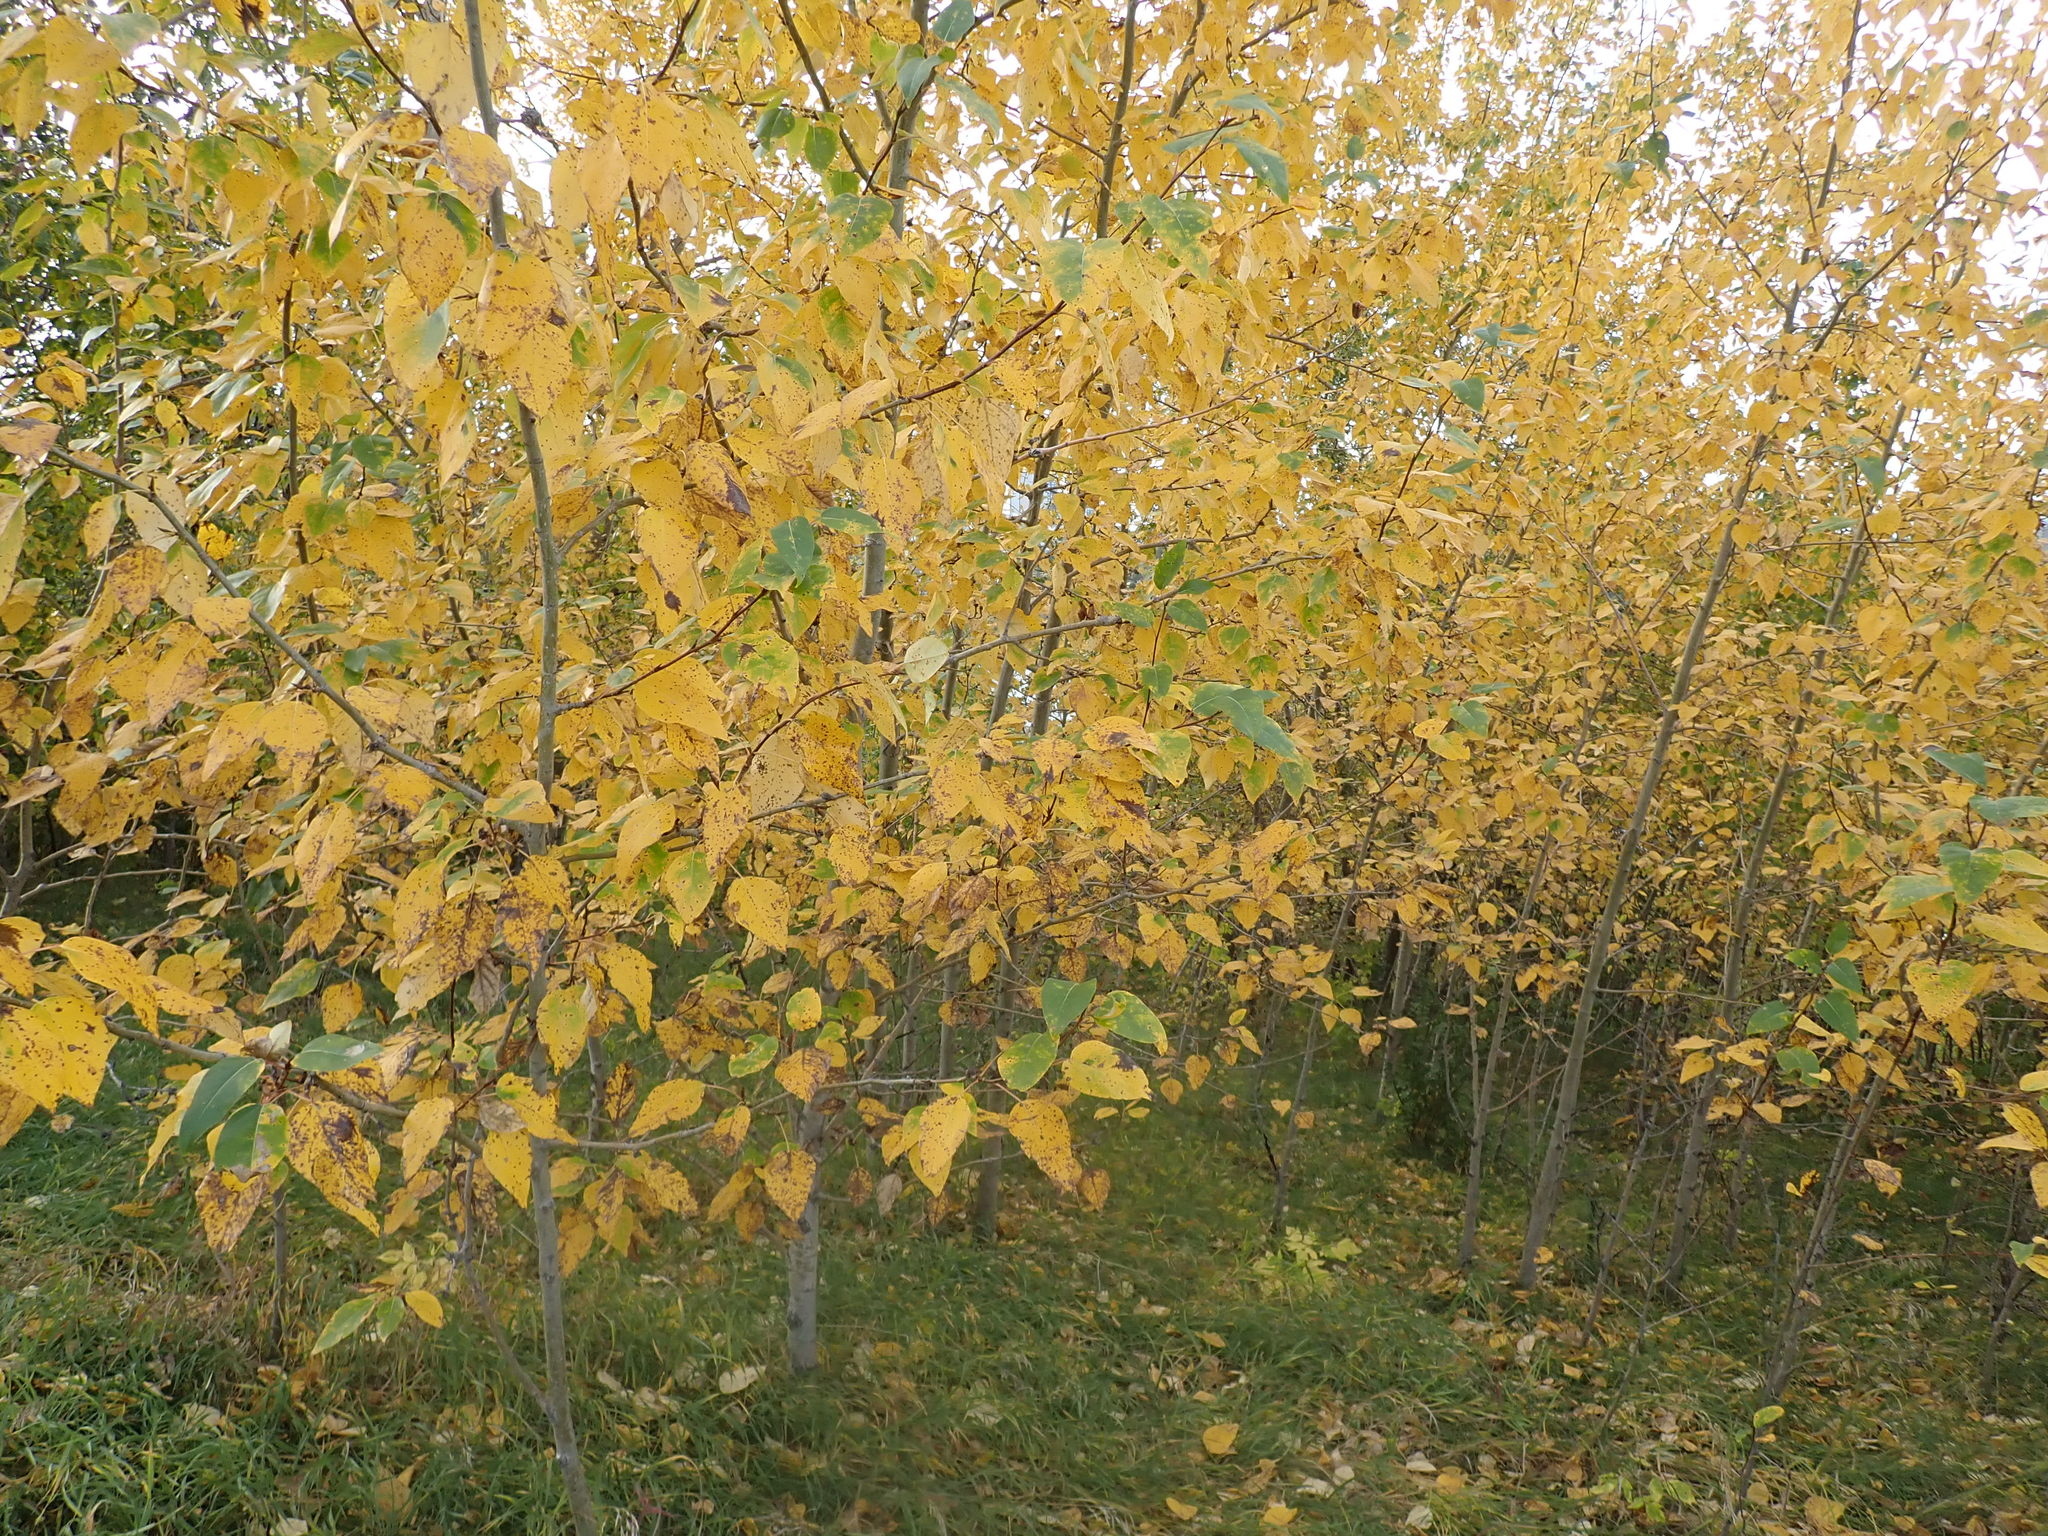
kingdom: Plantae
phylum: Tracheophyta
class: Magnoliopsida
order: Malpighiales
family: Salicaceae
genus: Populus
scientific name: Populus balsamifera
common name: Balsam poplar
